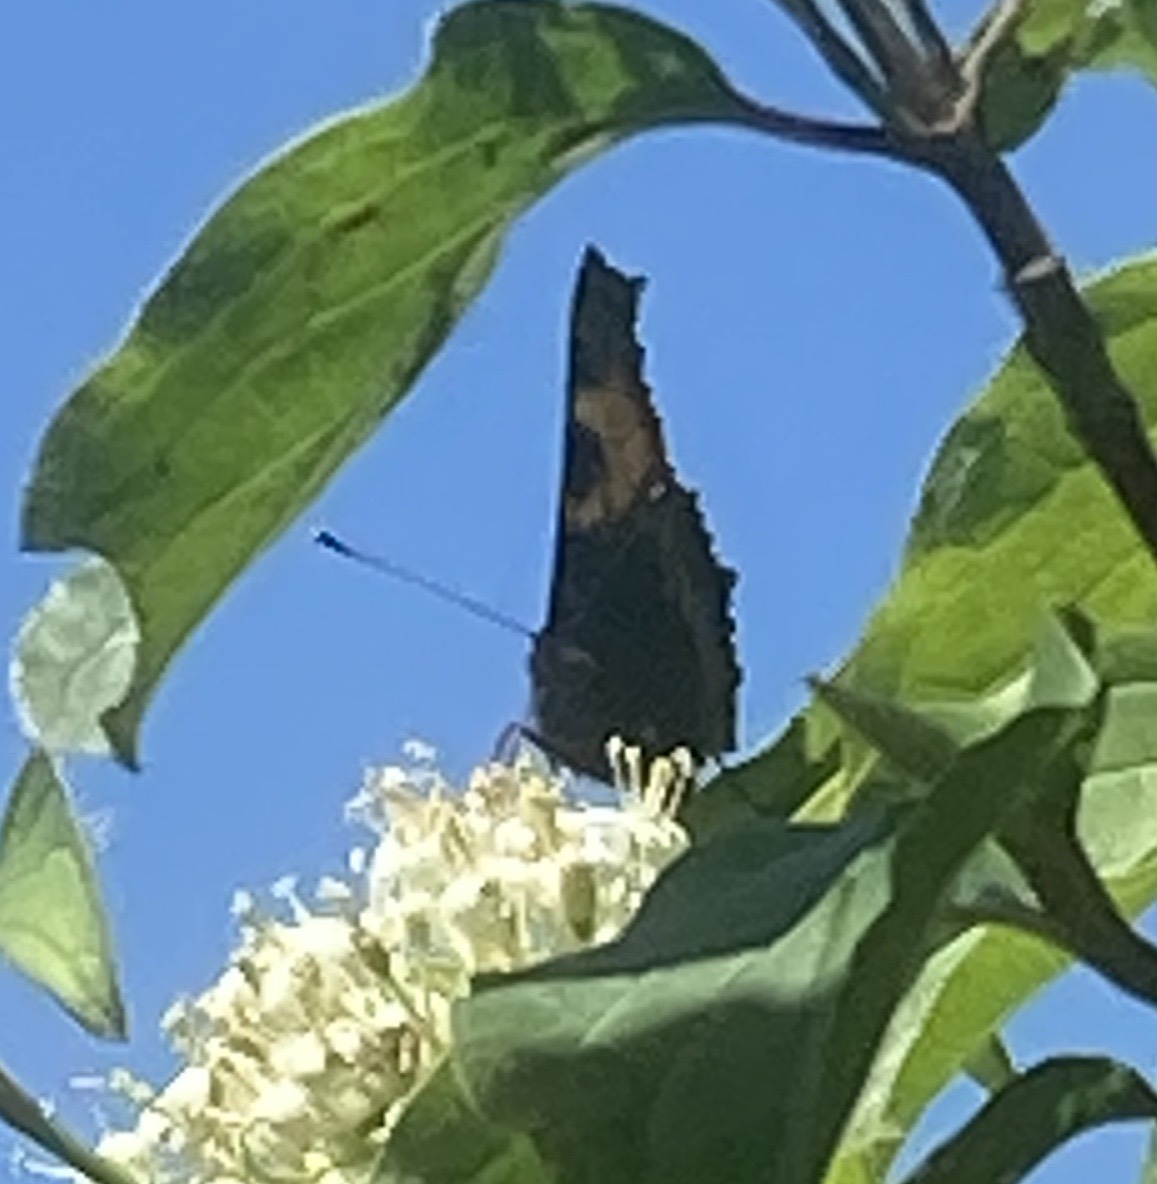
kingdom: Animalia
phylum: Arthropoda
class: Insecta
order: Lepidoptera
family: Nymphalidae
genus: Aglais
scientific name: Aglais urticae
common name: Small tortoiseshell
